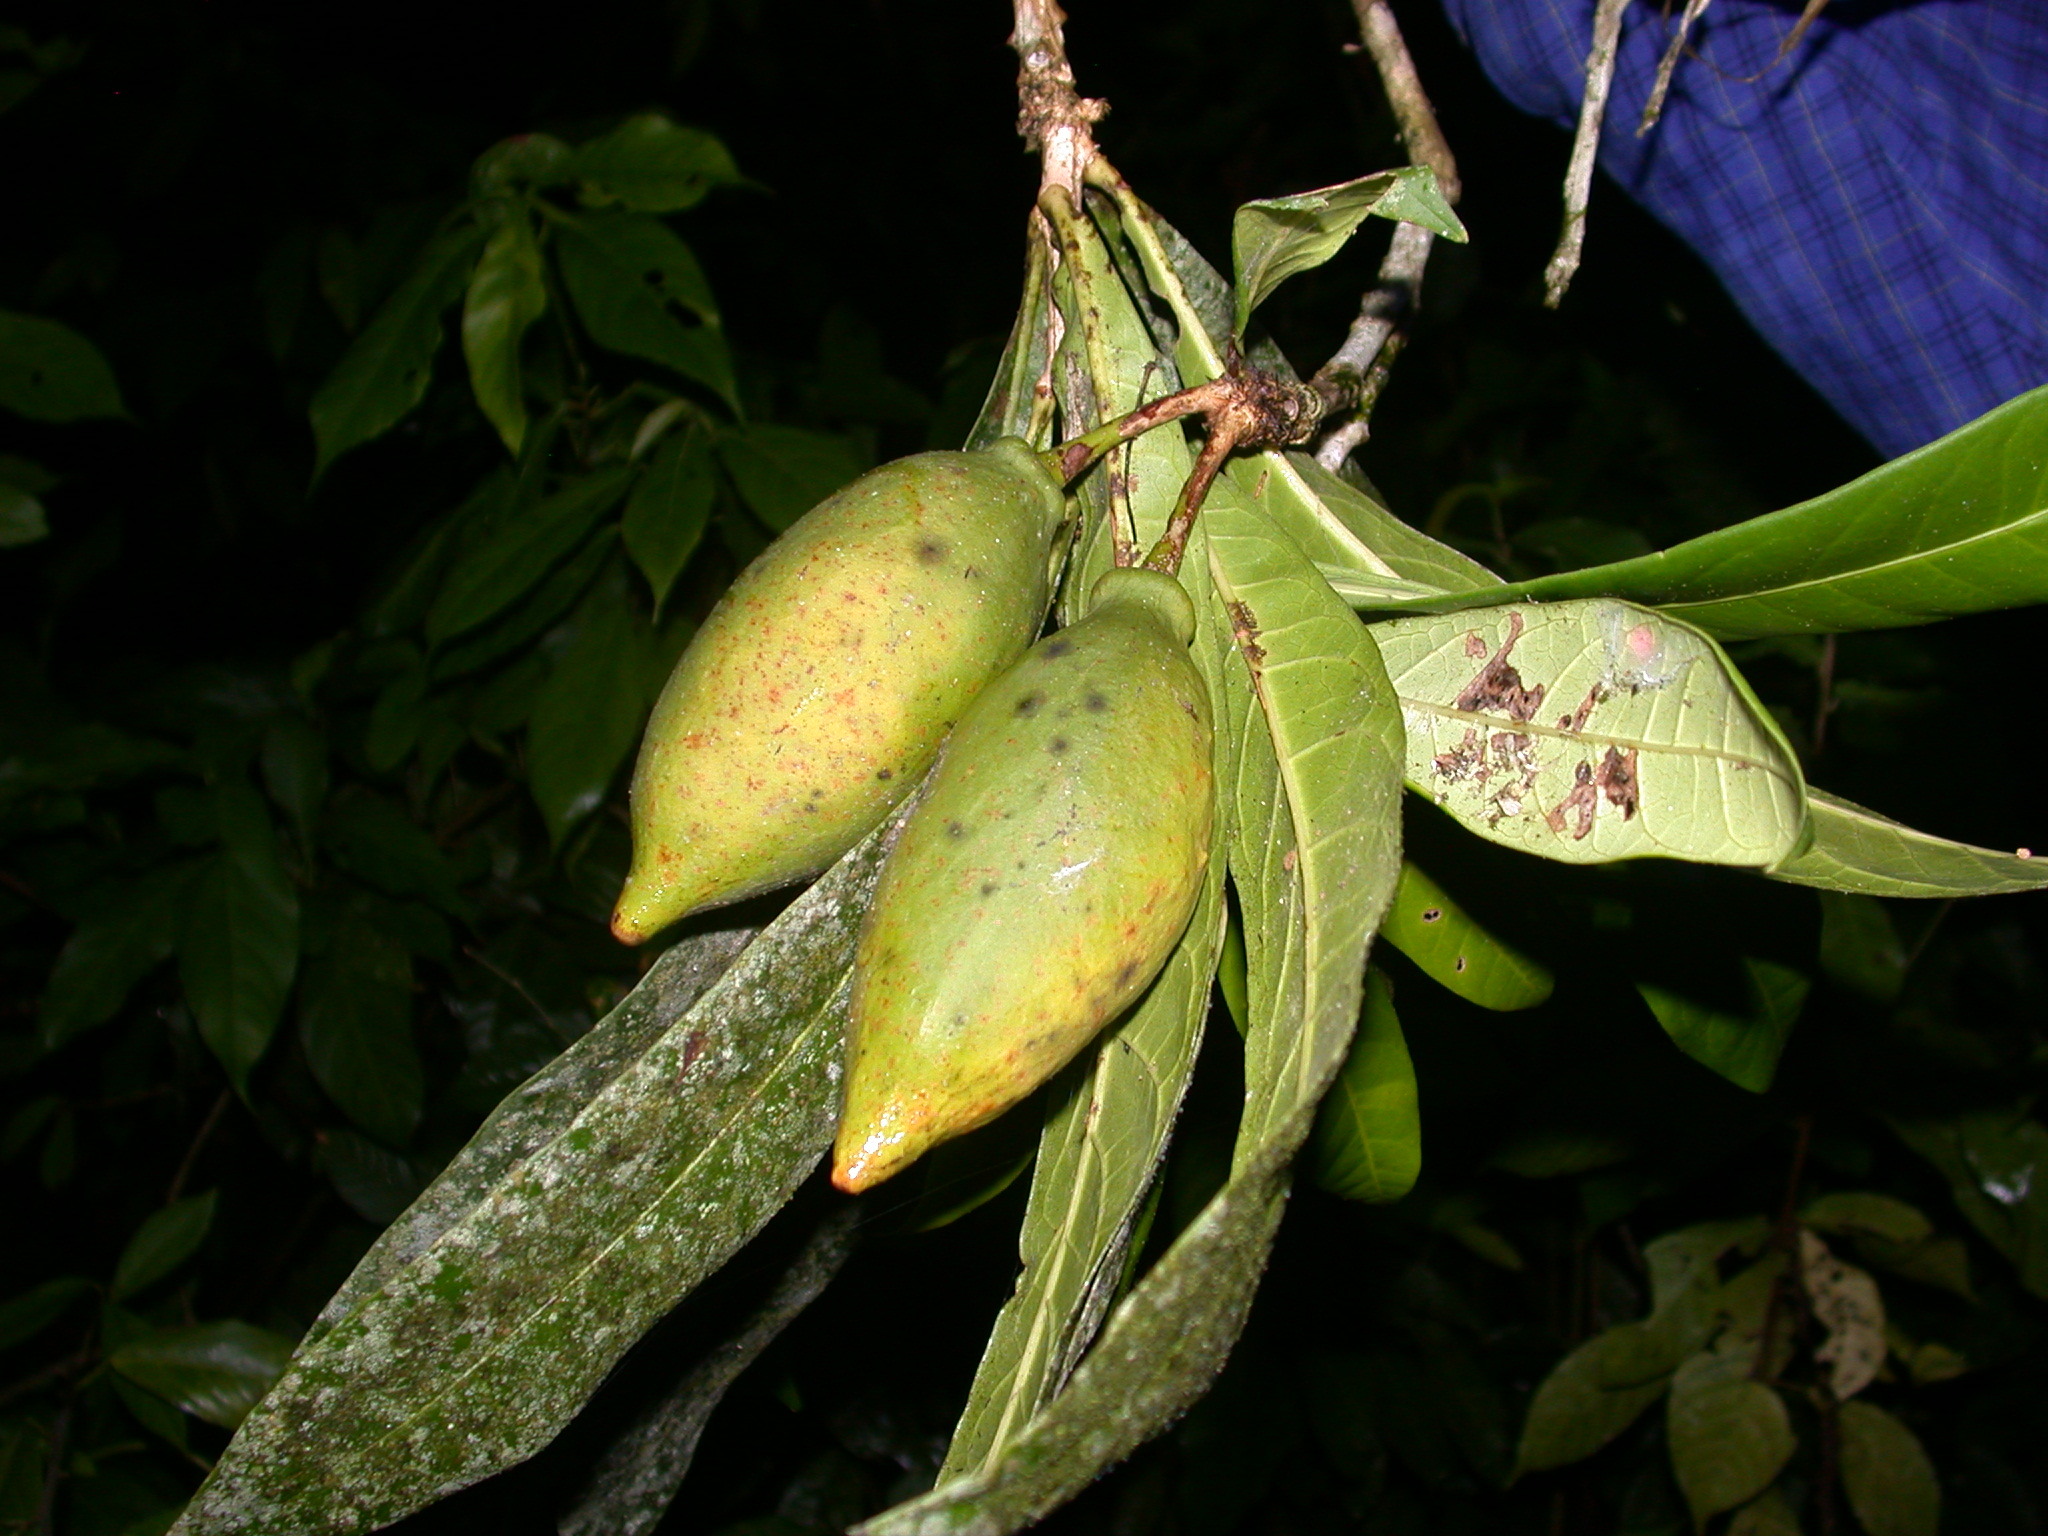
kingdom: Plantae
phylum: Tracheophyta
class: Magnoliopsida
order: Lamiales
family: Bignoniaceae
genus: Amphitecna
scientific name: Amphitecna apiculata
